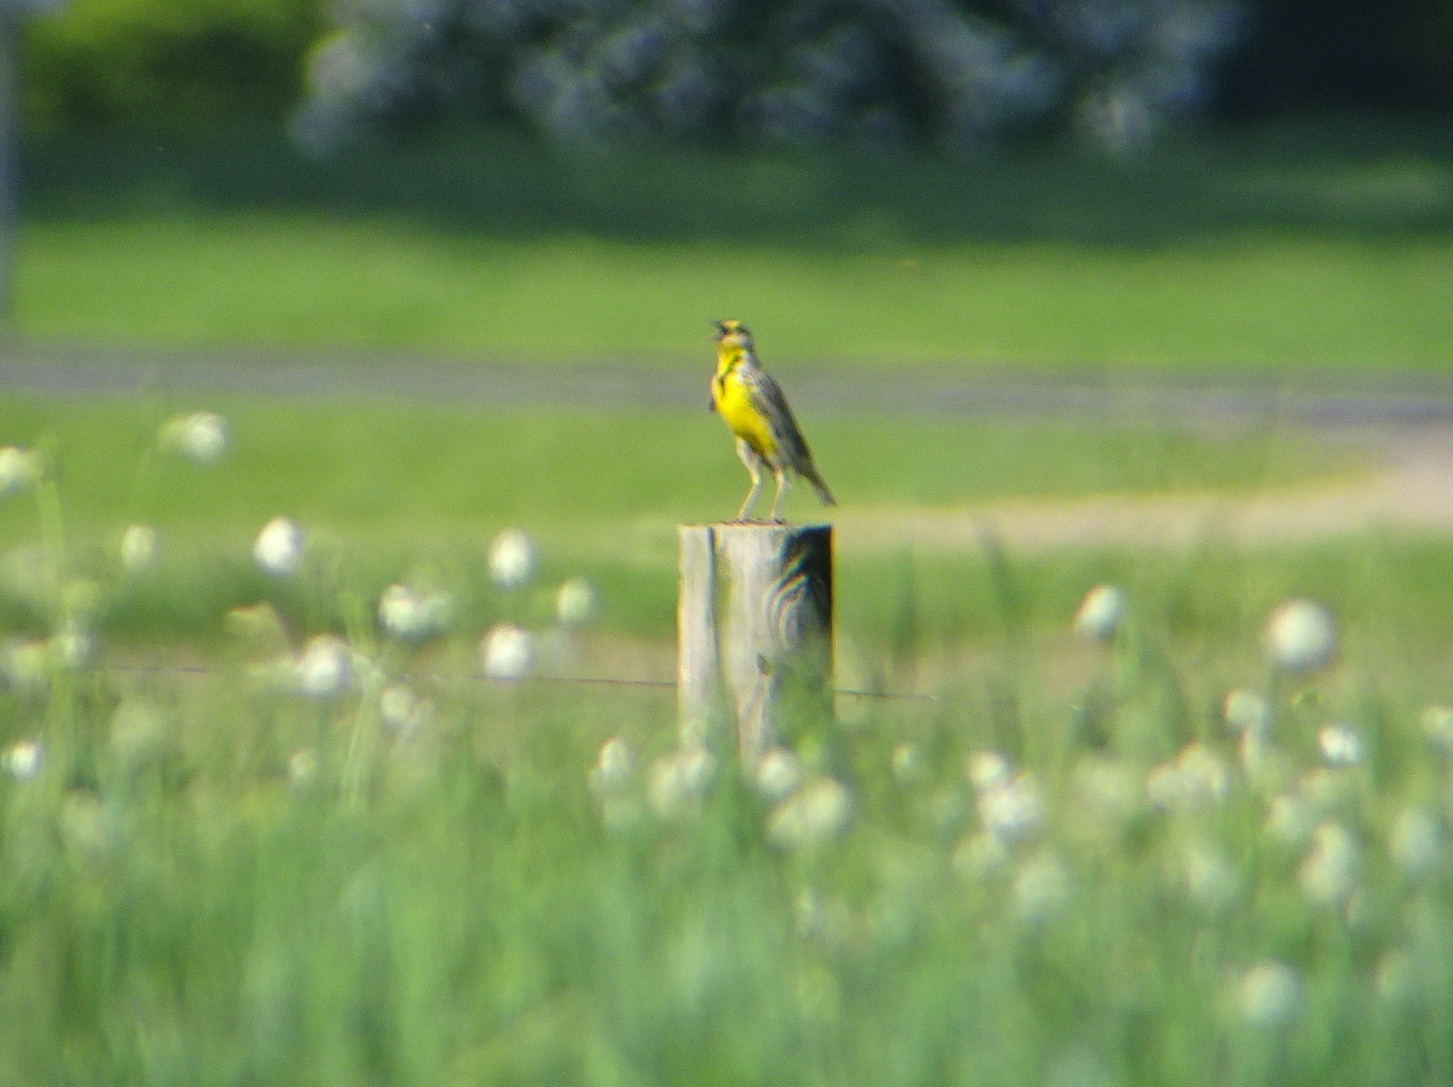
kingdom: Animalia
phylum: Chordata
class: Aves
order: Passeriformes
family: Icteridae
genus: Sturnella
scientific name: Sturnella neglecta
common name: Western meadowlark
